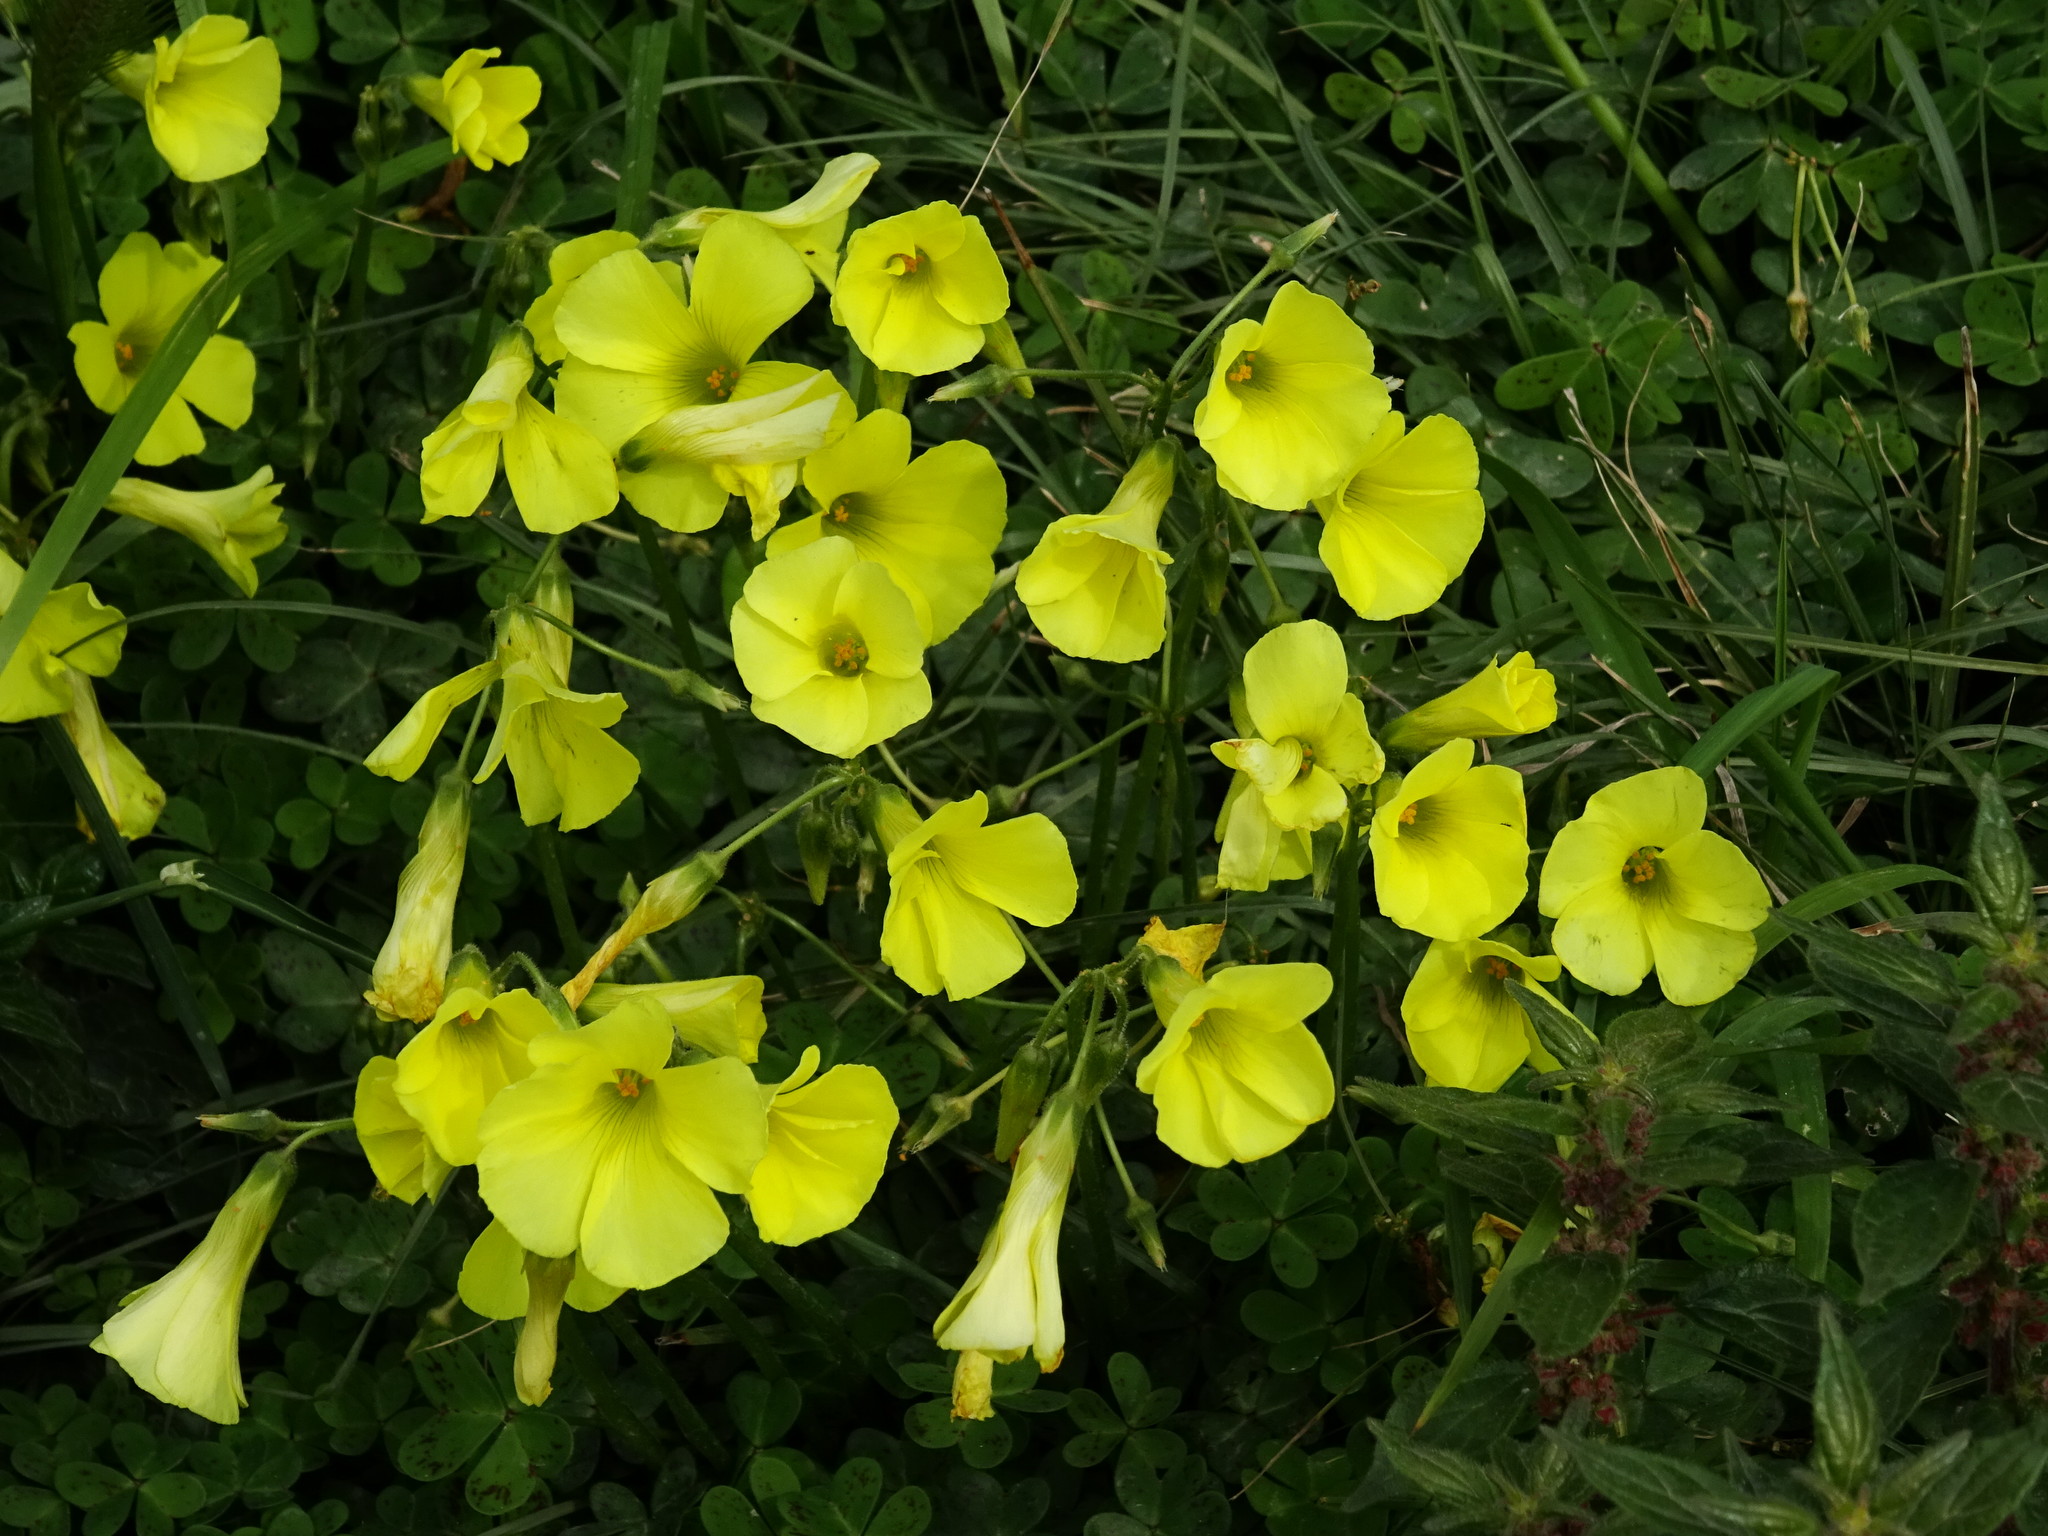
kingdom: Plantae
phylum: Tracheophyta
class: Magnoliopsida
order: Oxalidales
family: Oxalidaceae
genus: Oxalis
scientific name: Oxalis pes-caprae
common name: Bermuda-buttercup
